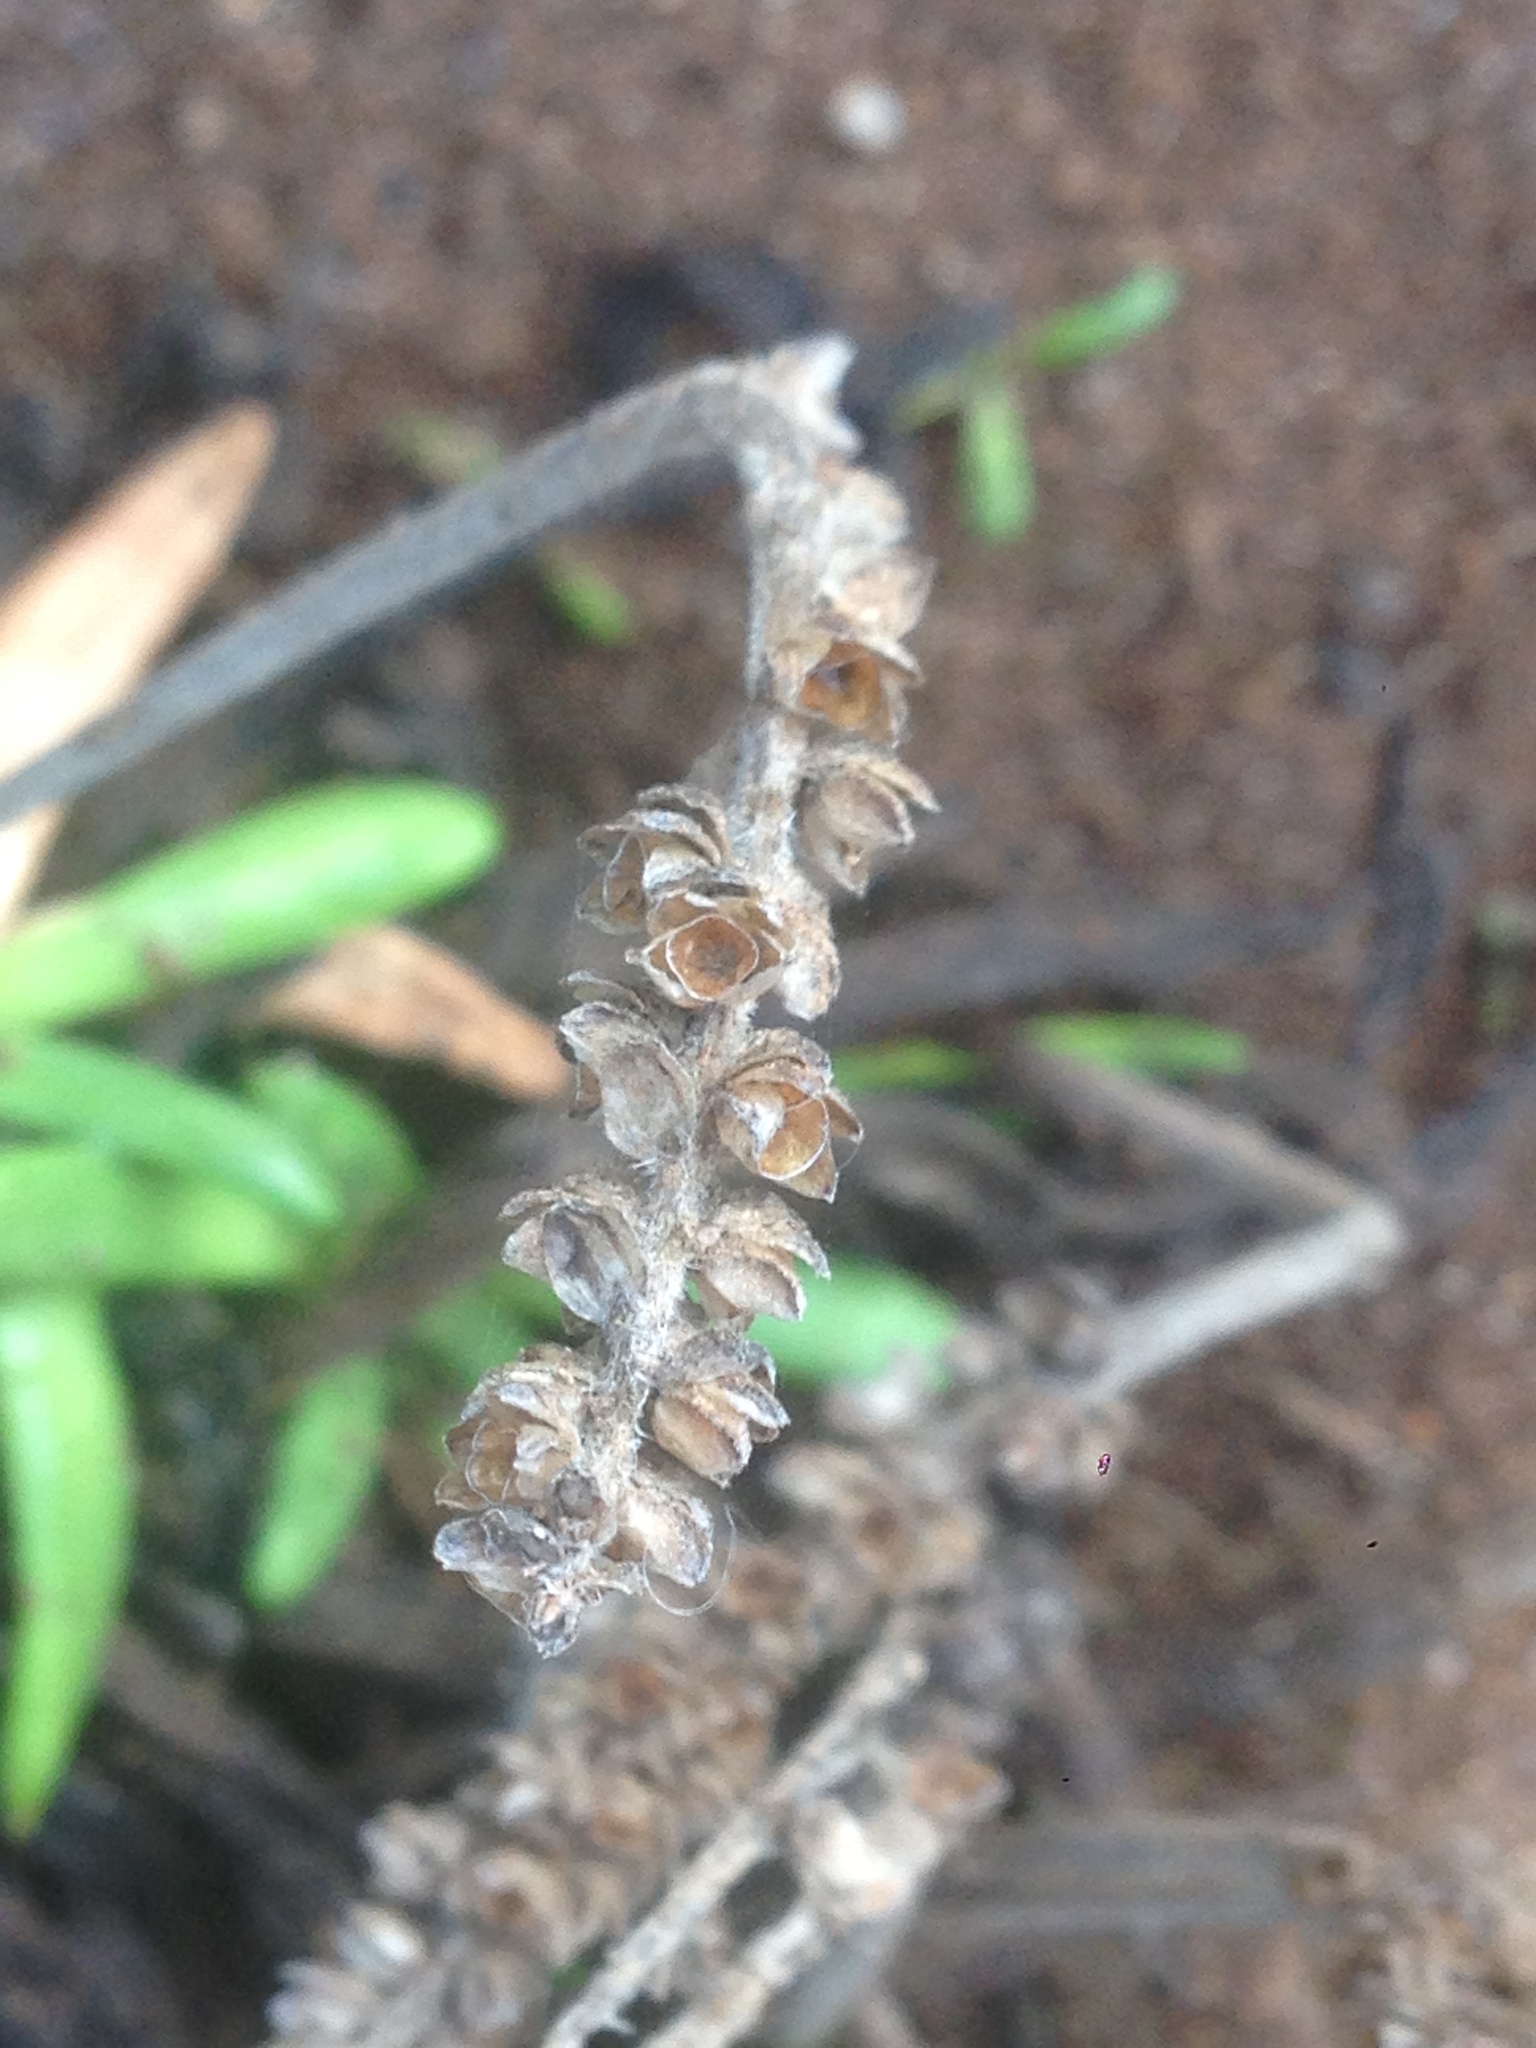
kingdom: Plantae
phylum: Tracheophyta
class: Magnoliopsida
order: Lamiales
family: Plantaginaceae
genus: Plantago
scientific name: Plantago maritima
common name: Sea plantain
